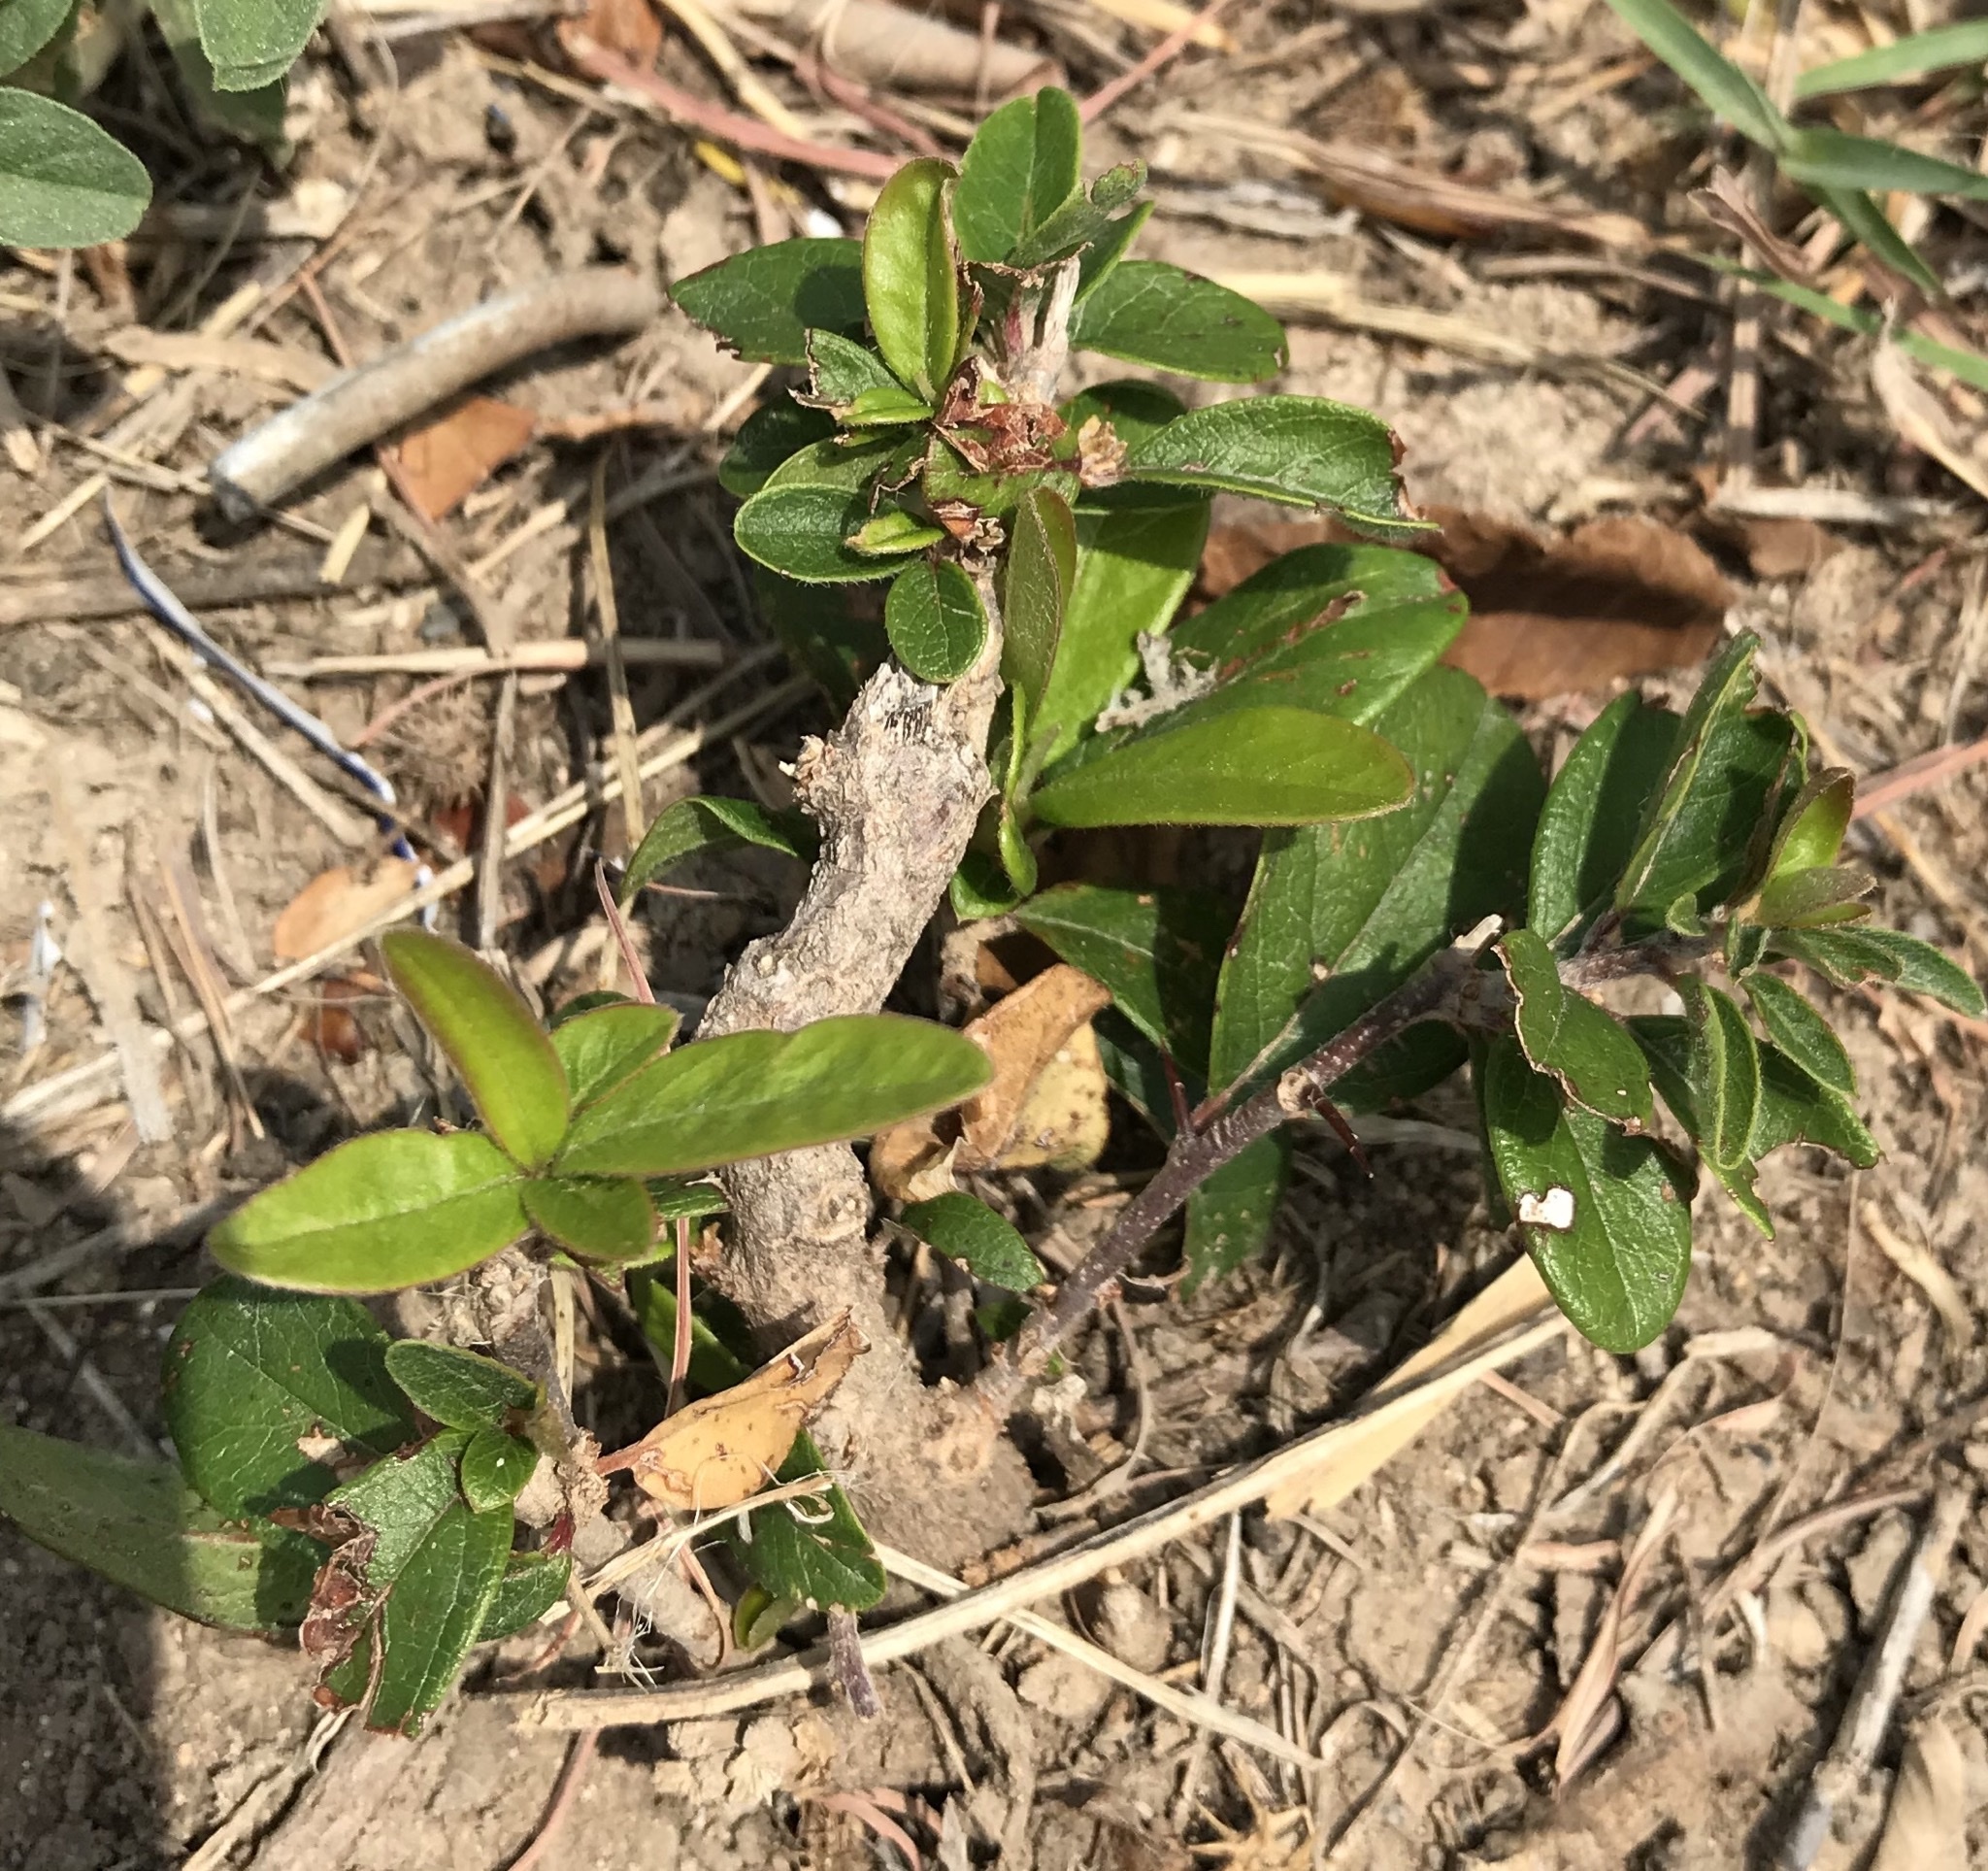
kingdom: Plantae
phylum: Tracheophyta
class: Magnoliopsida
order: Ericales
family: Sapotaceae
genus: Sideroxylon
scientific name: Sideroxylon lanuginosum
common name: Chittamwood
